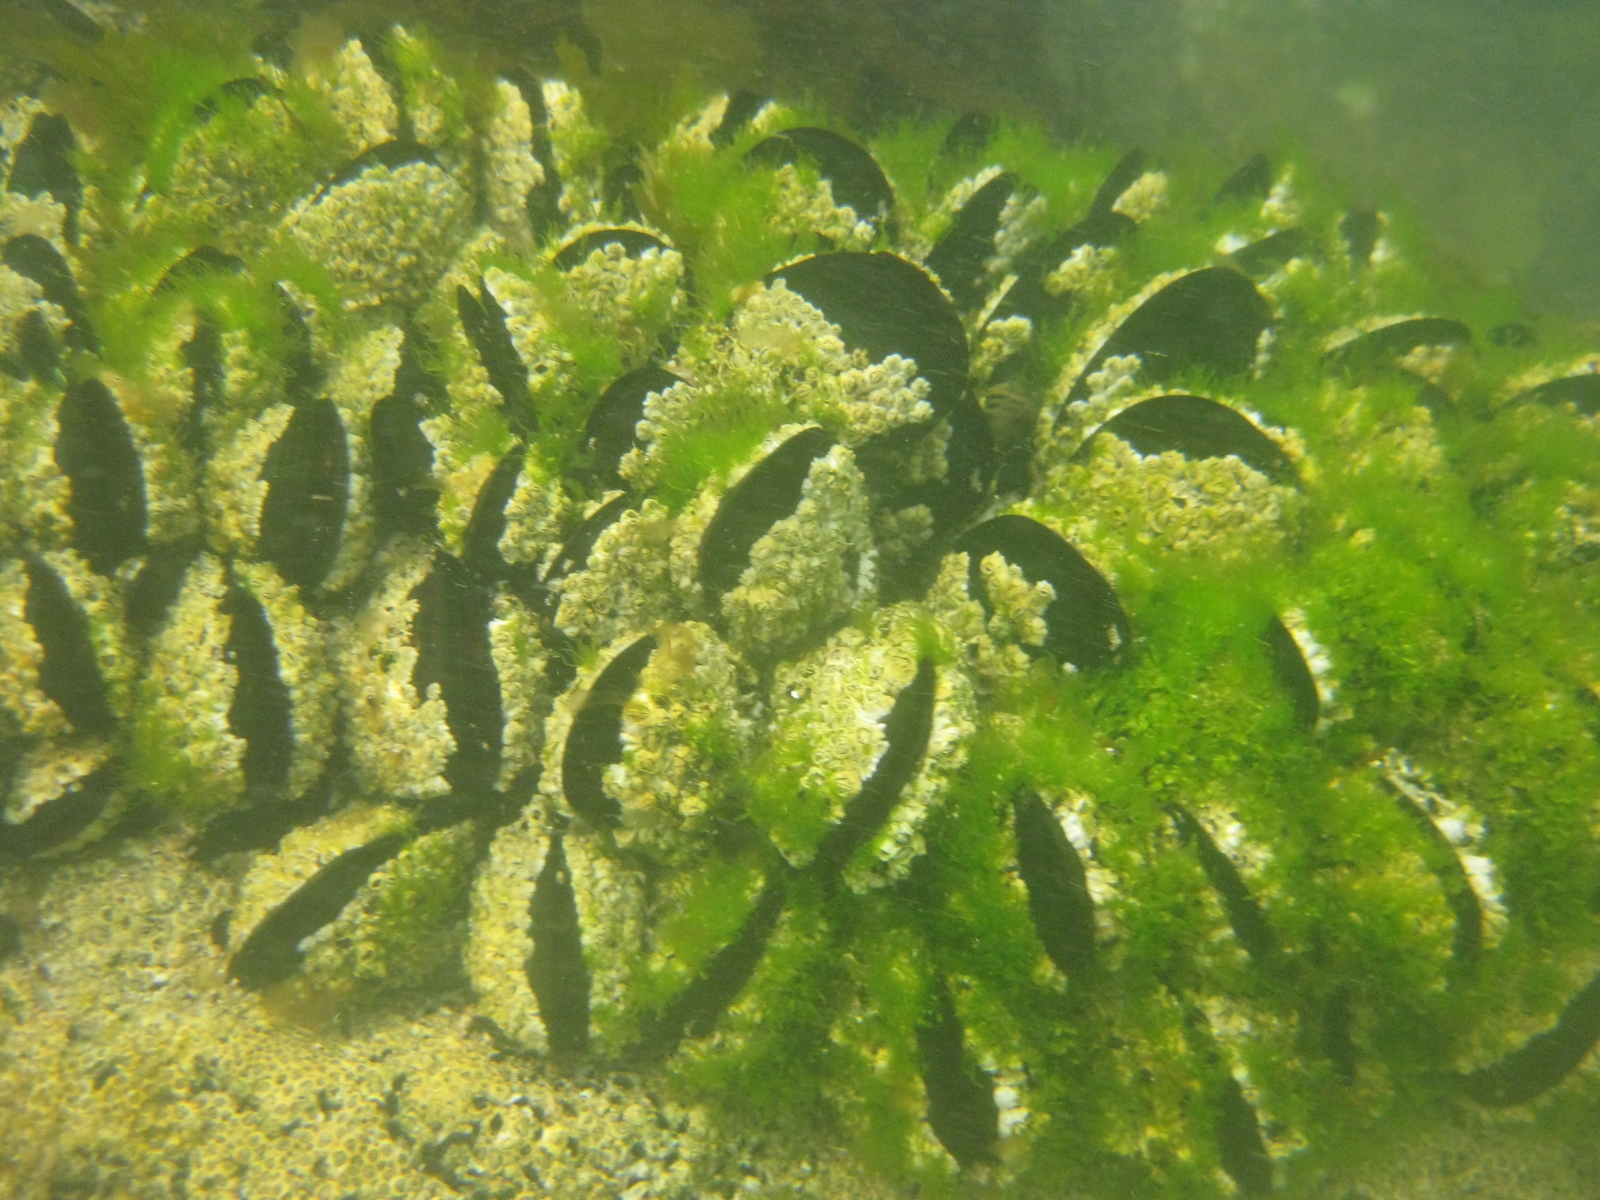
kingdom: Animalia
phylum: Mollusca
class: Bivalvia
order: Mytilida
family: Mytilidae
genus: Perna
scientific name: Perna canaliculus
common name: New zealand greenshelltm
